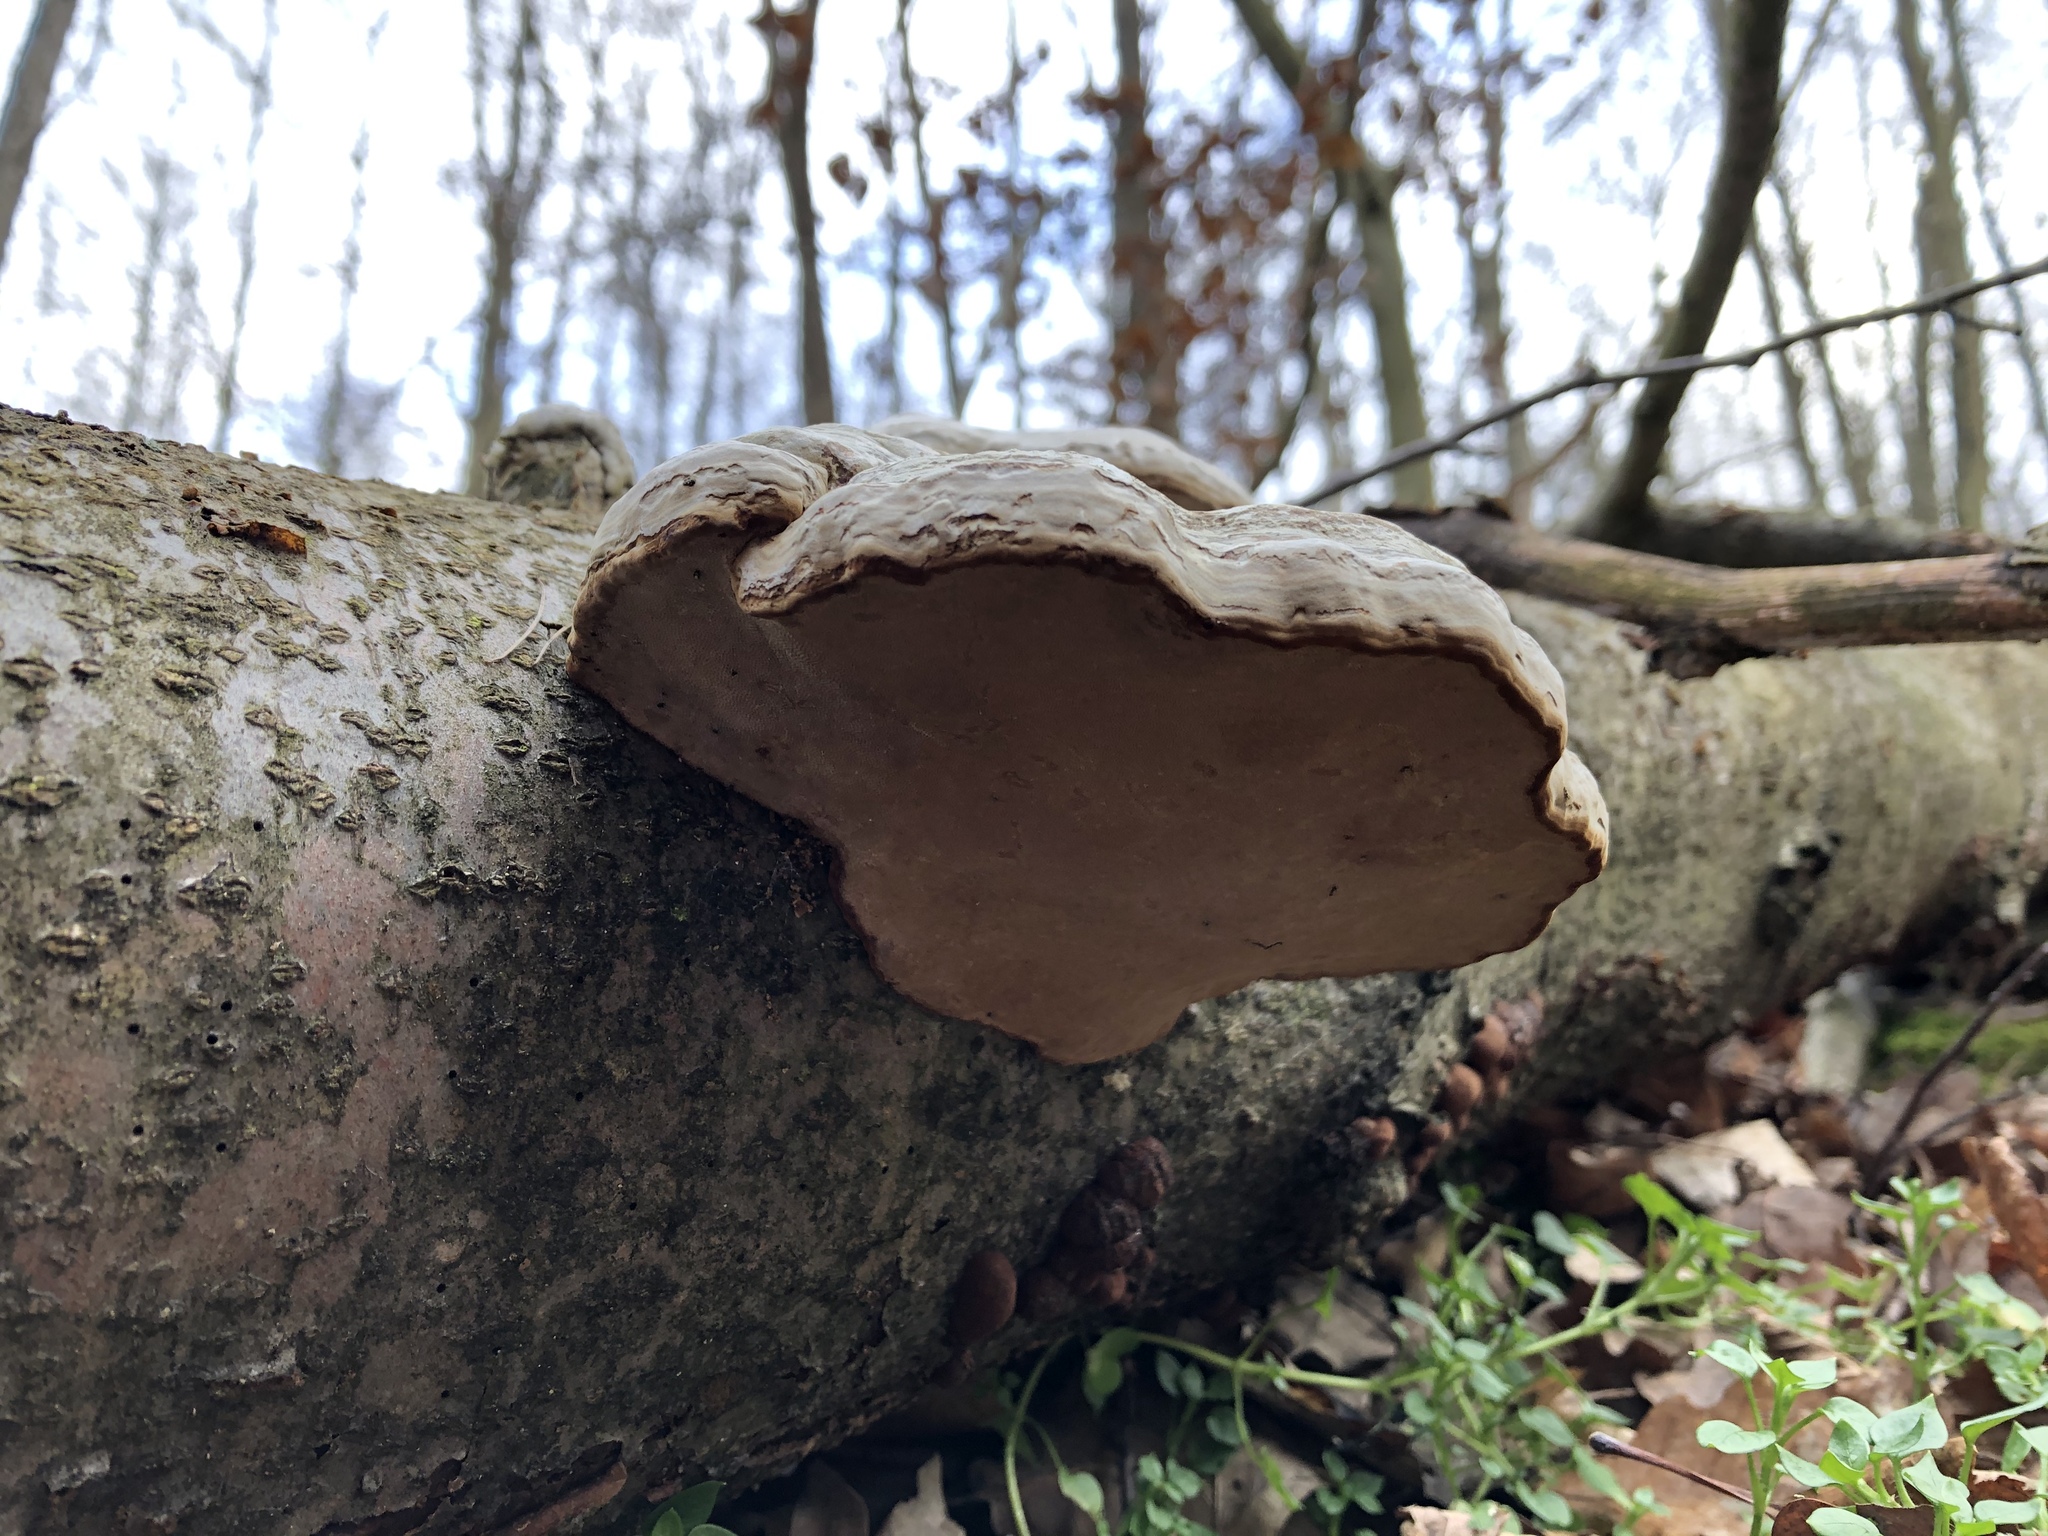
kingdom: Fungi
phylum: Basidiomycota
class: Agaricomycetes
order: Polyporales
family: Polyporaceae
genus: Fomes
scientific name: Fomes fomentarius
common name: Hoof fungus
